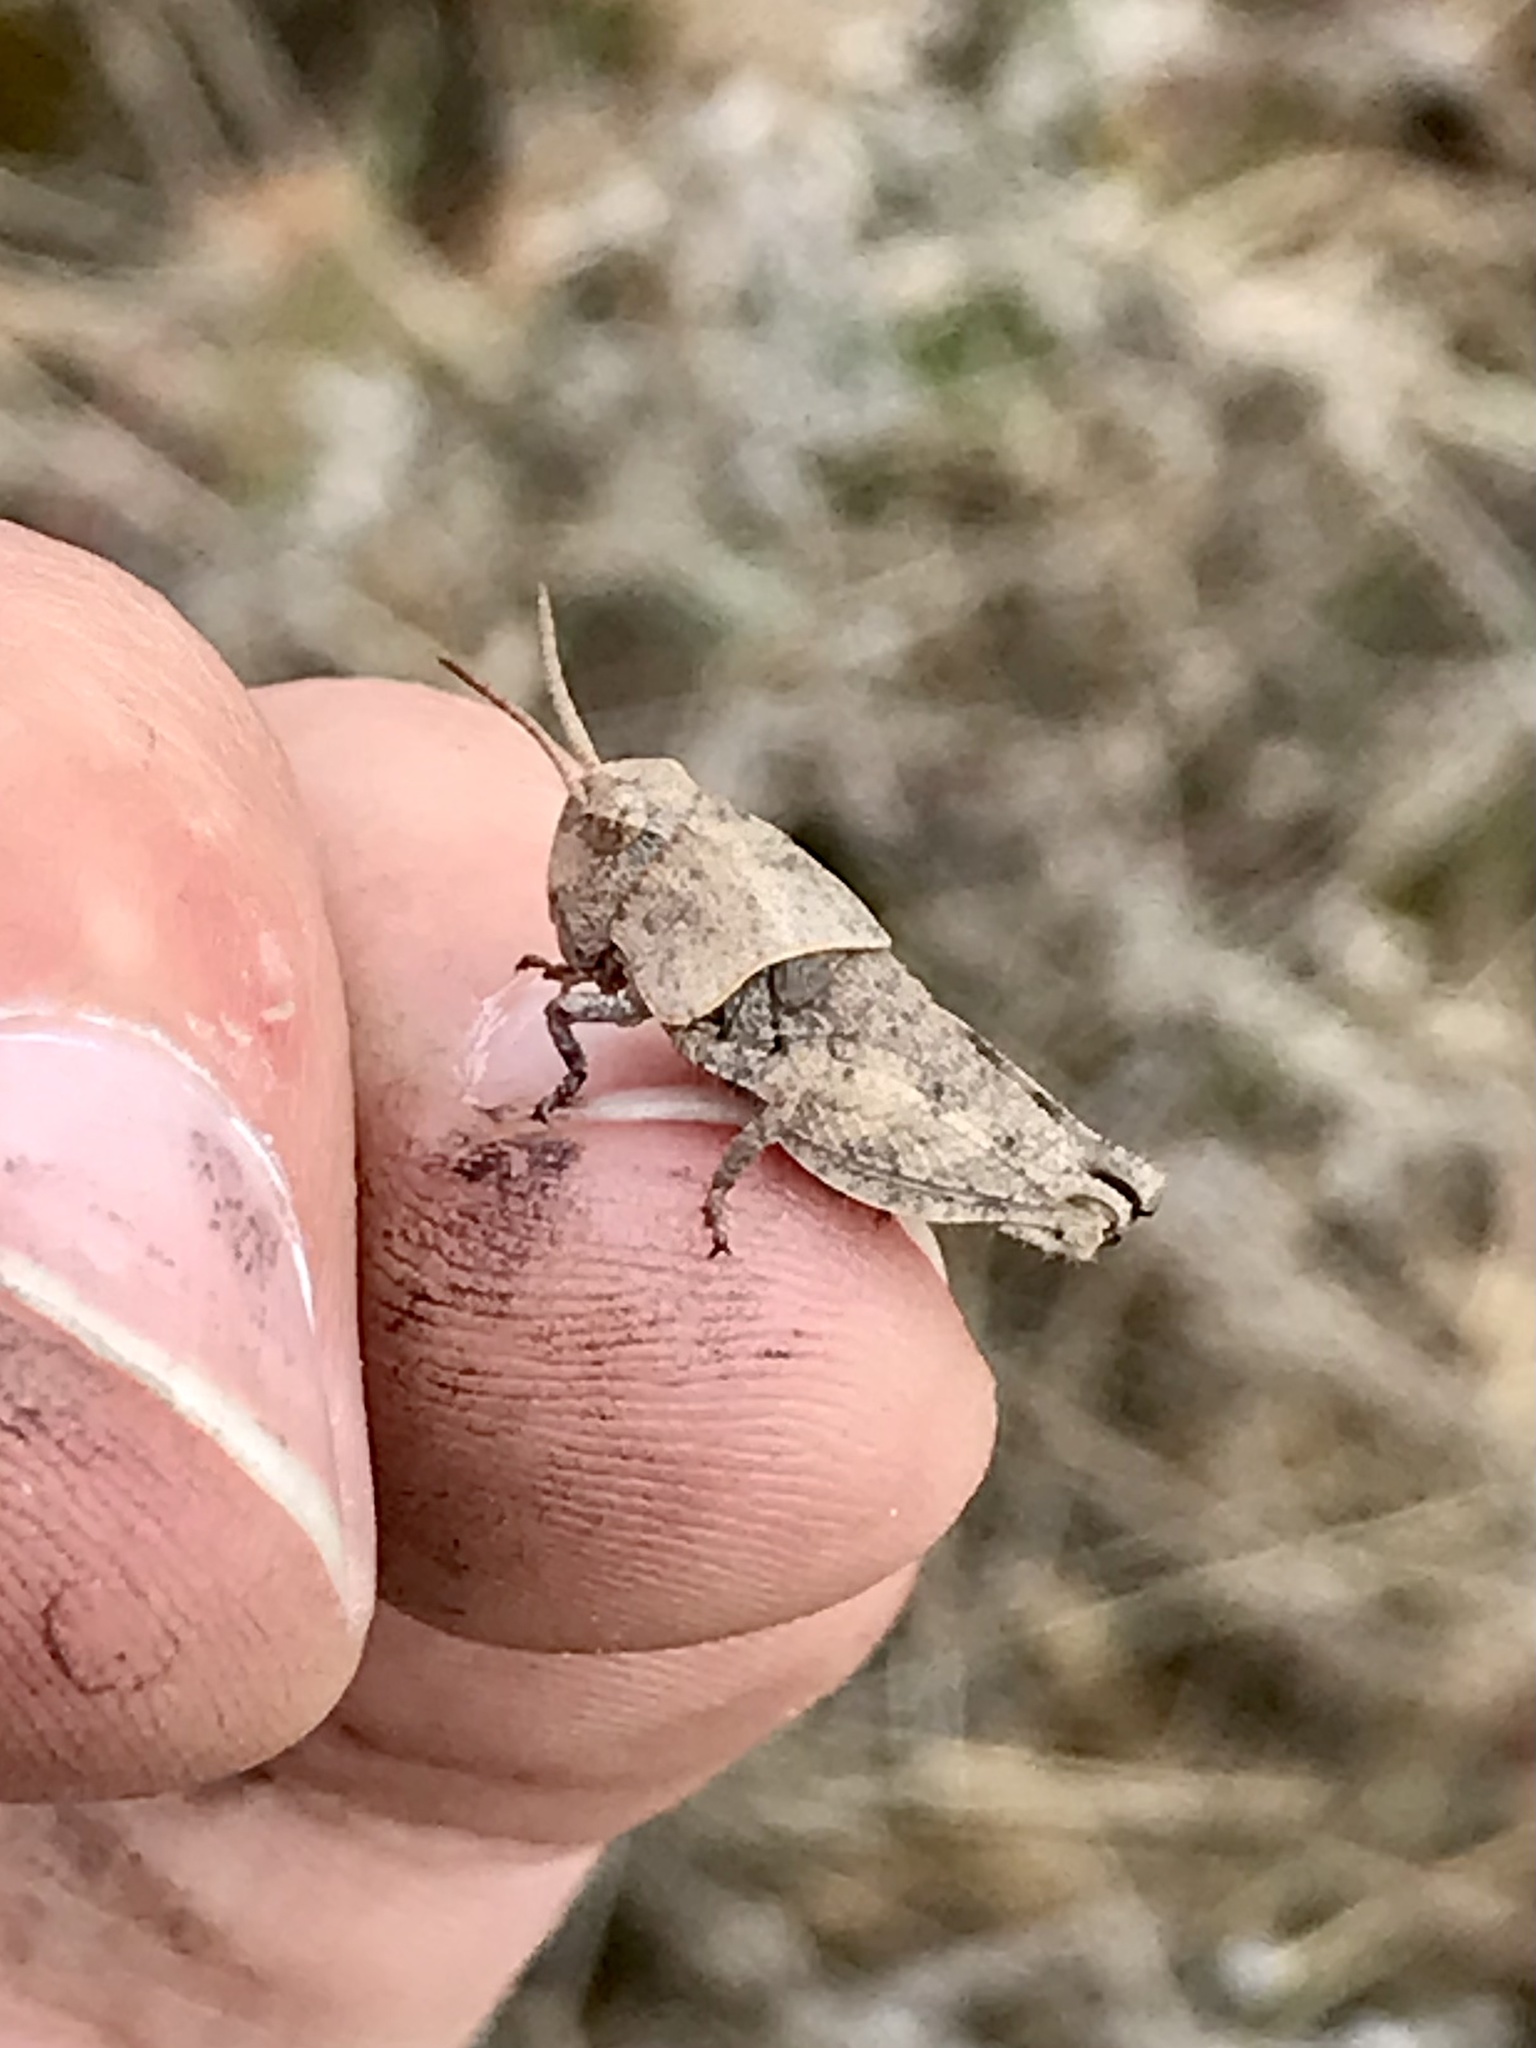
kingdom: Animalia
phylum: Arthropoda
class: Insecta
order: Orthoptera
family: Acrididae
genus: Pardalophora
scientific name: Pardalophora apiculata
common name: Coral-winged locust
